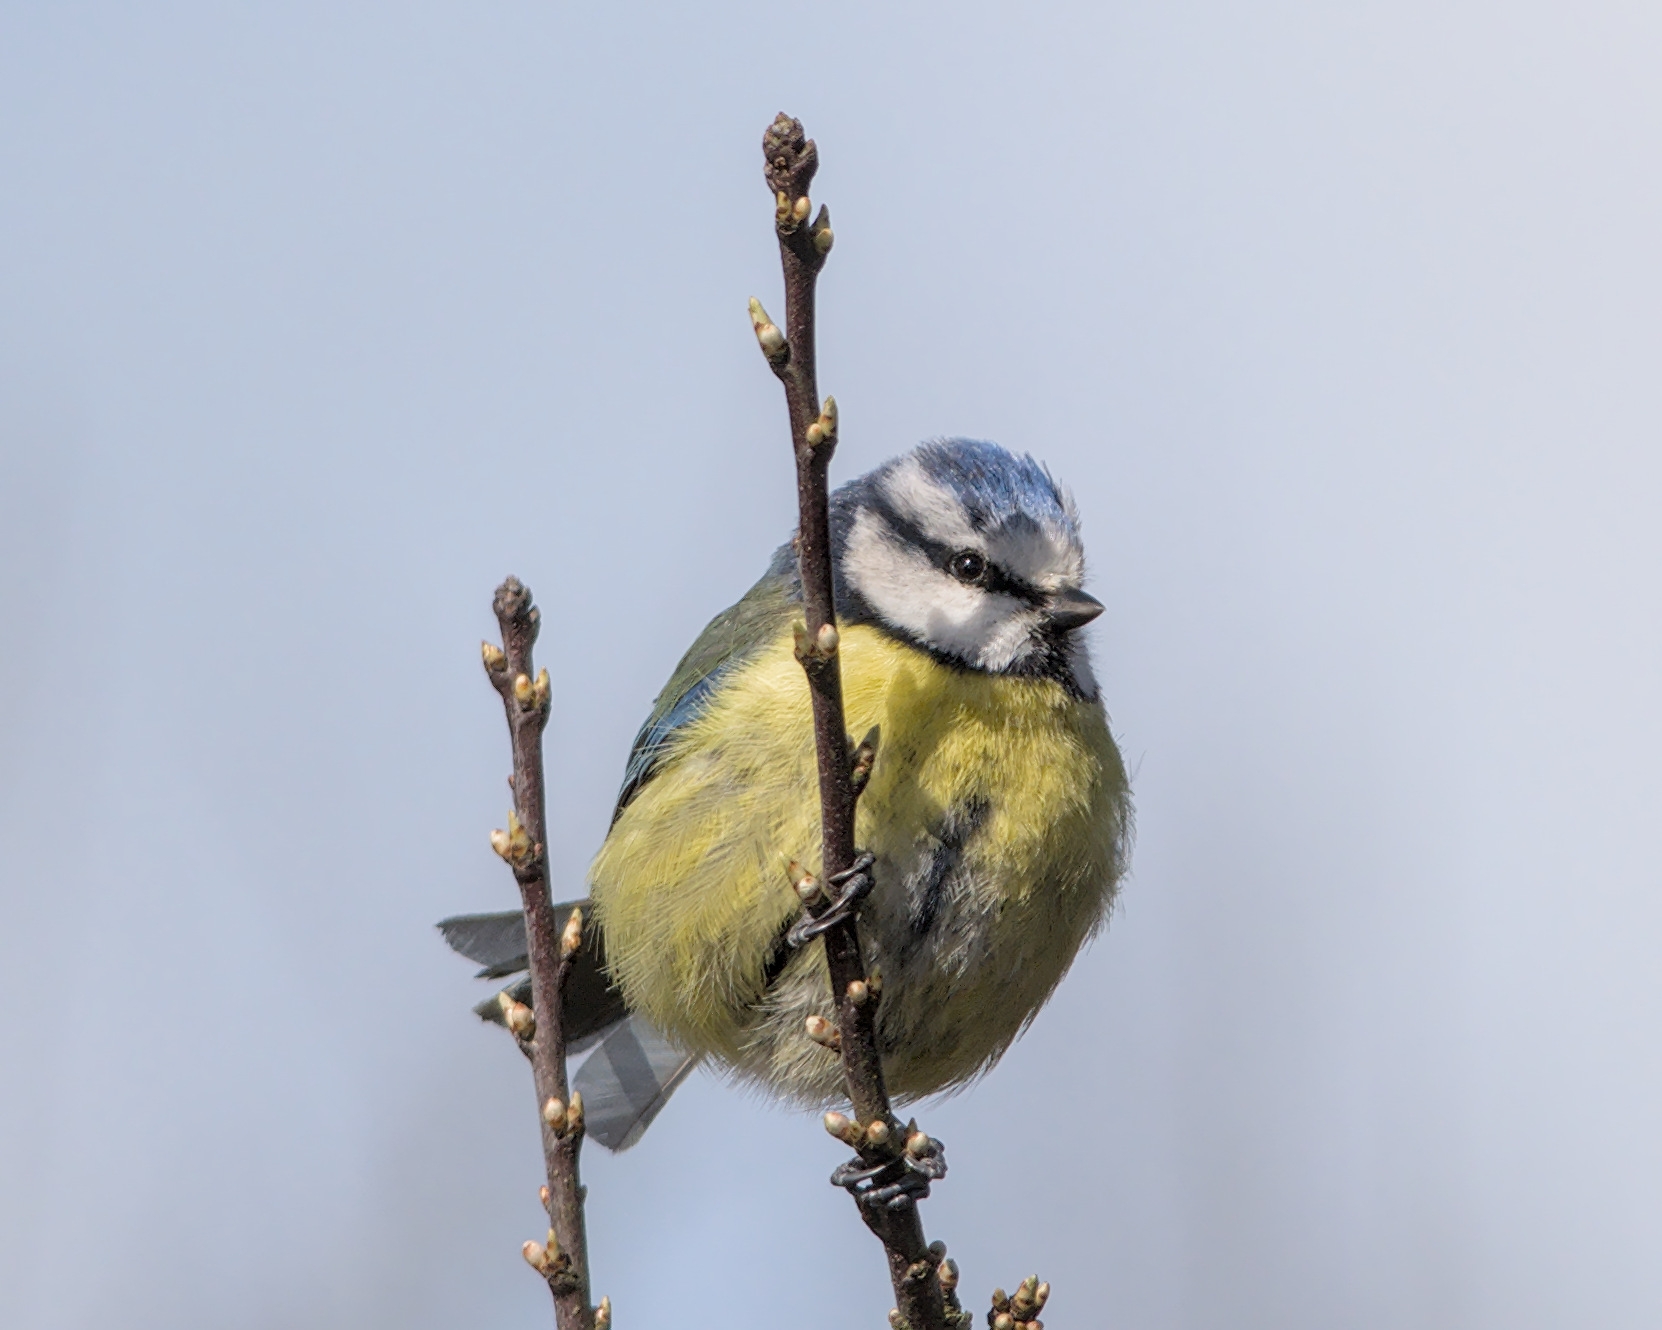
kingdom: Animalia
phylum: Chordata
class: Aves
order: Passeriformes
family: Paridae
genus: Cyanistes
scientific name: Cyanistes caeruleus
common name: Eurasian blue tit
